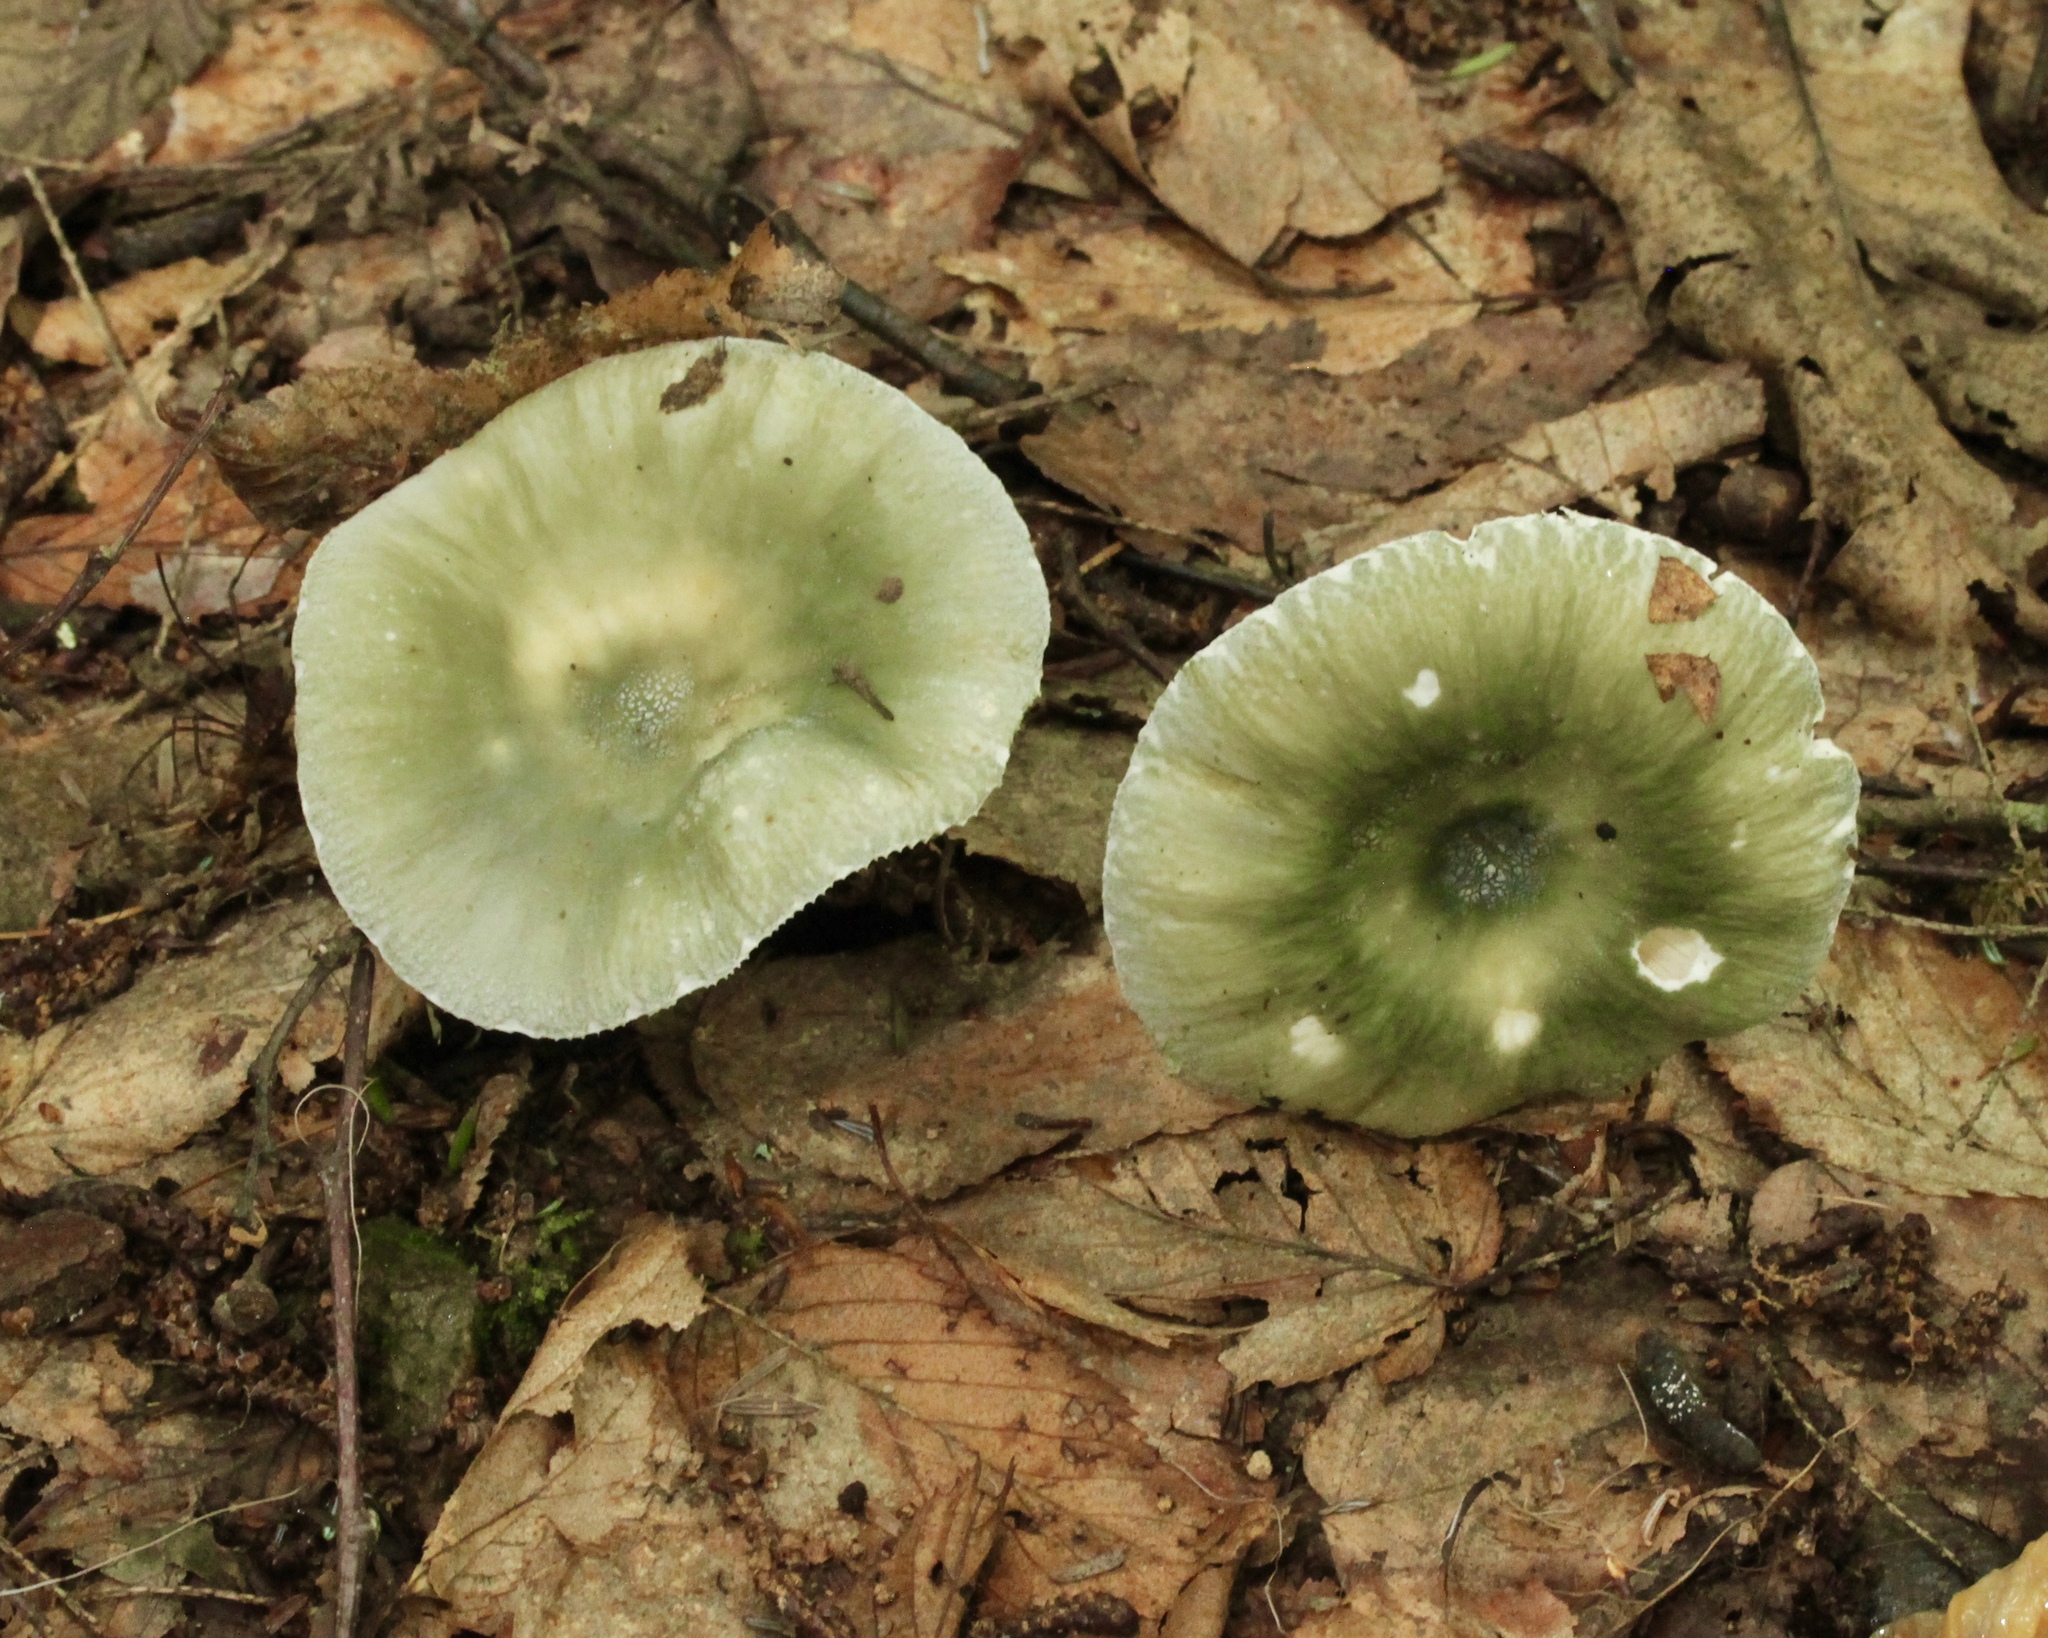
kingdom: Fungi
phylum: Basidiomycota
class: Agaricomycetes
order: Russulales
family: Russulaceae
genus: Russula
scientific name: Russula aeruginea
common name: Green brittlegill
